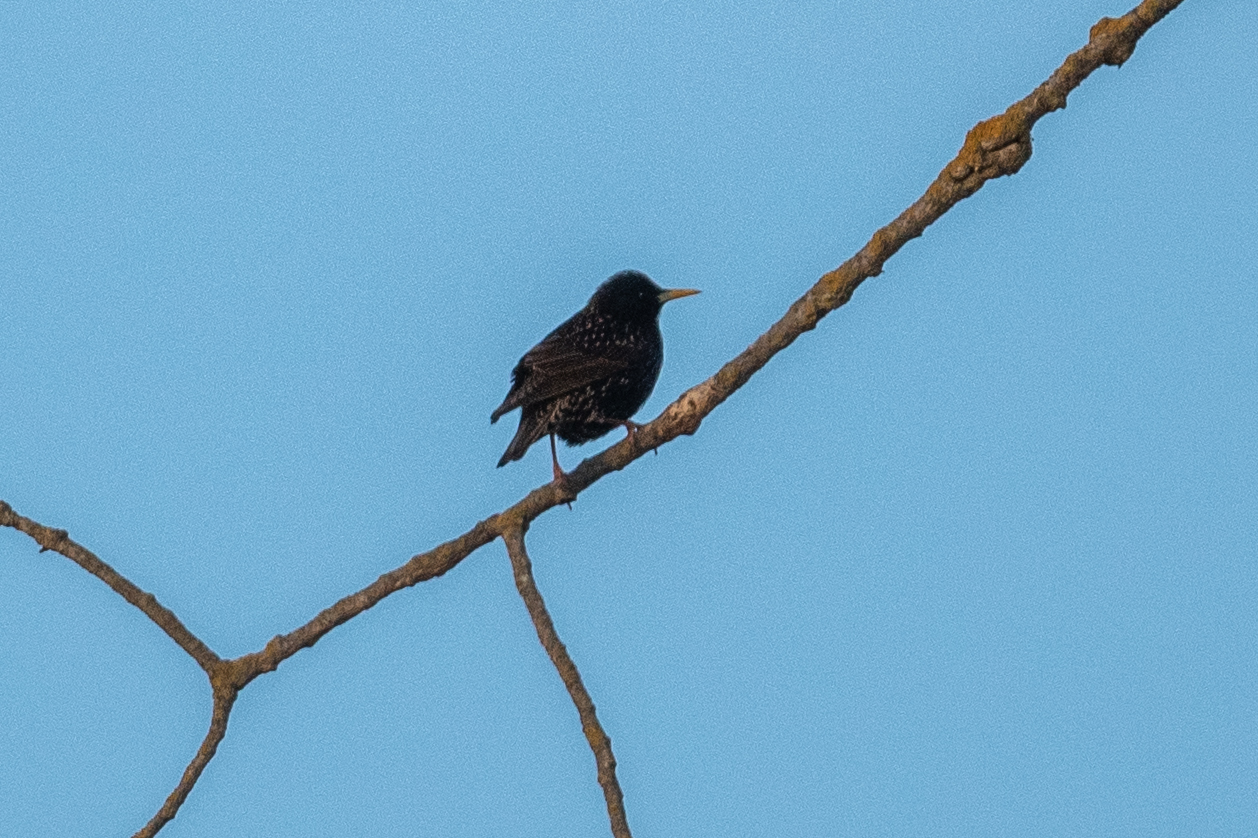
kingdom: Animalia
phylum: Chordata
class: Aves
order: Passeriformes
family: Sturnidae
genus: Sturnus
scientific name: Sturnus vulgaris
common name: Common starling
